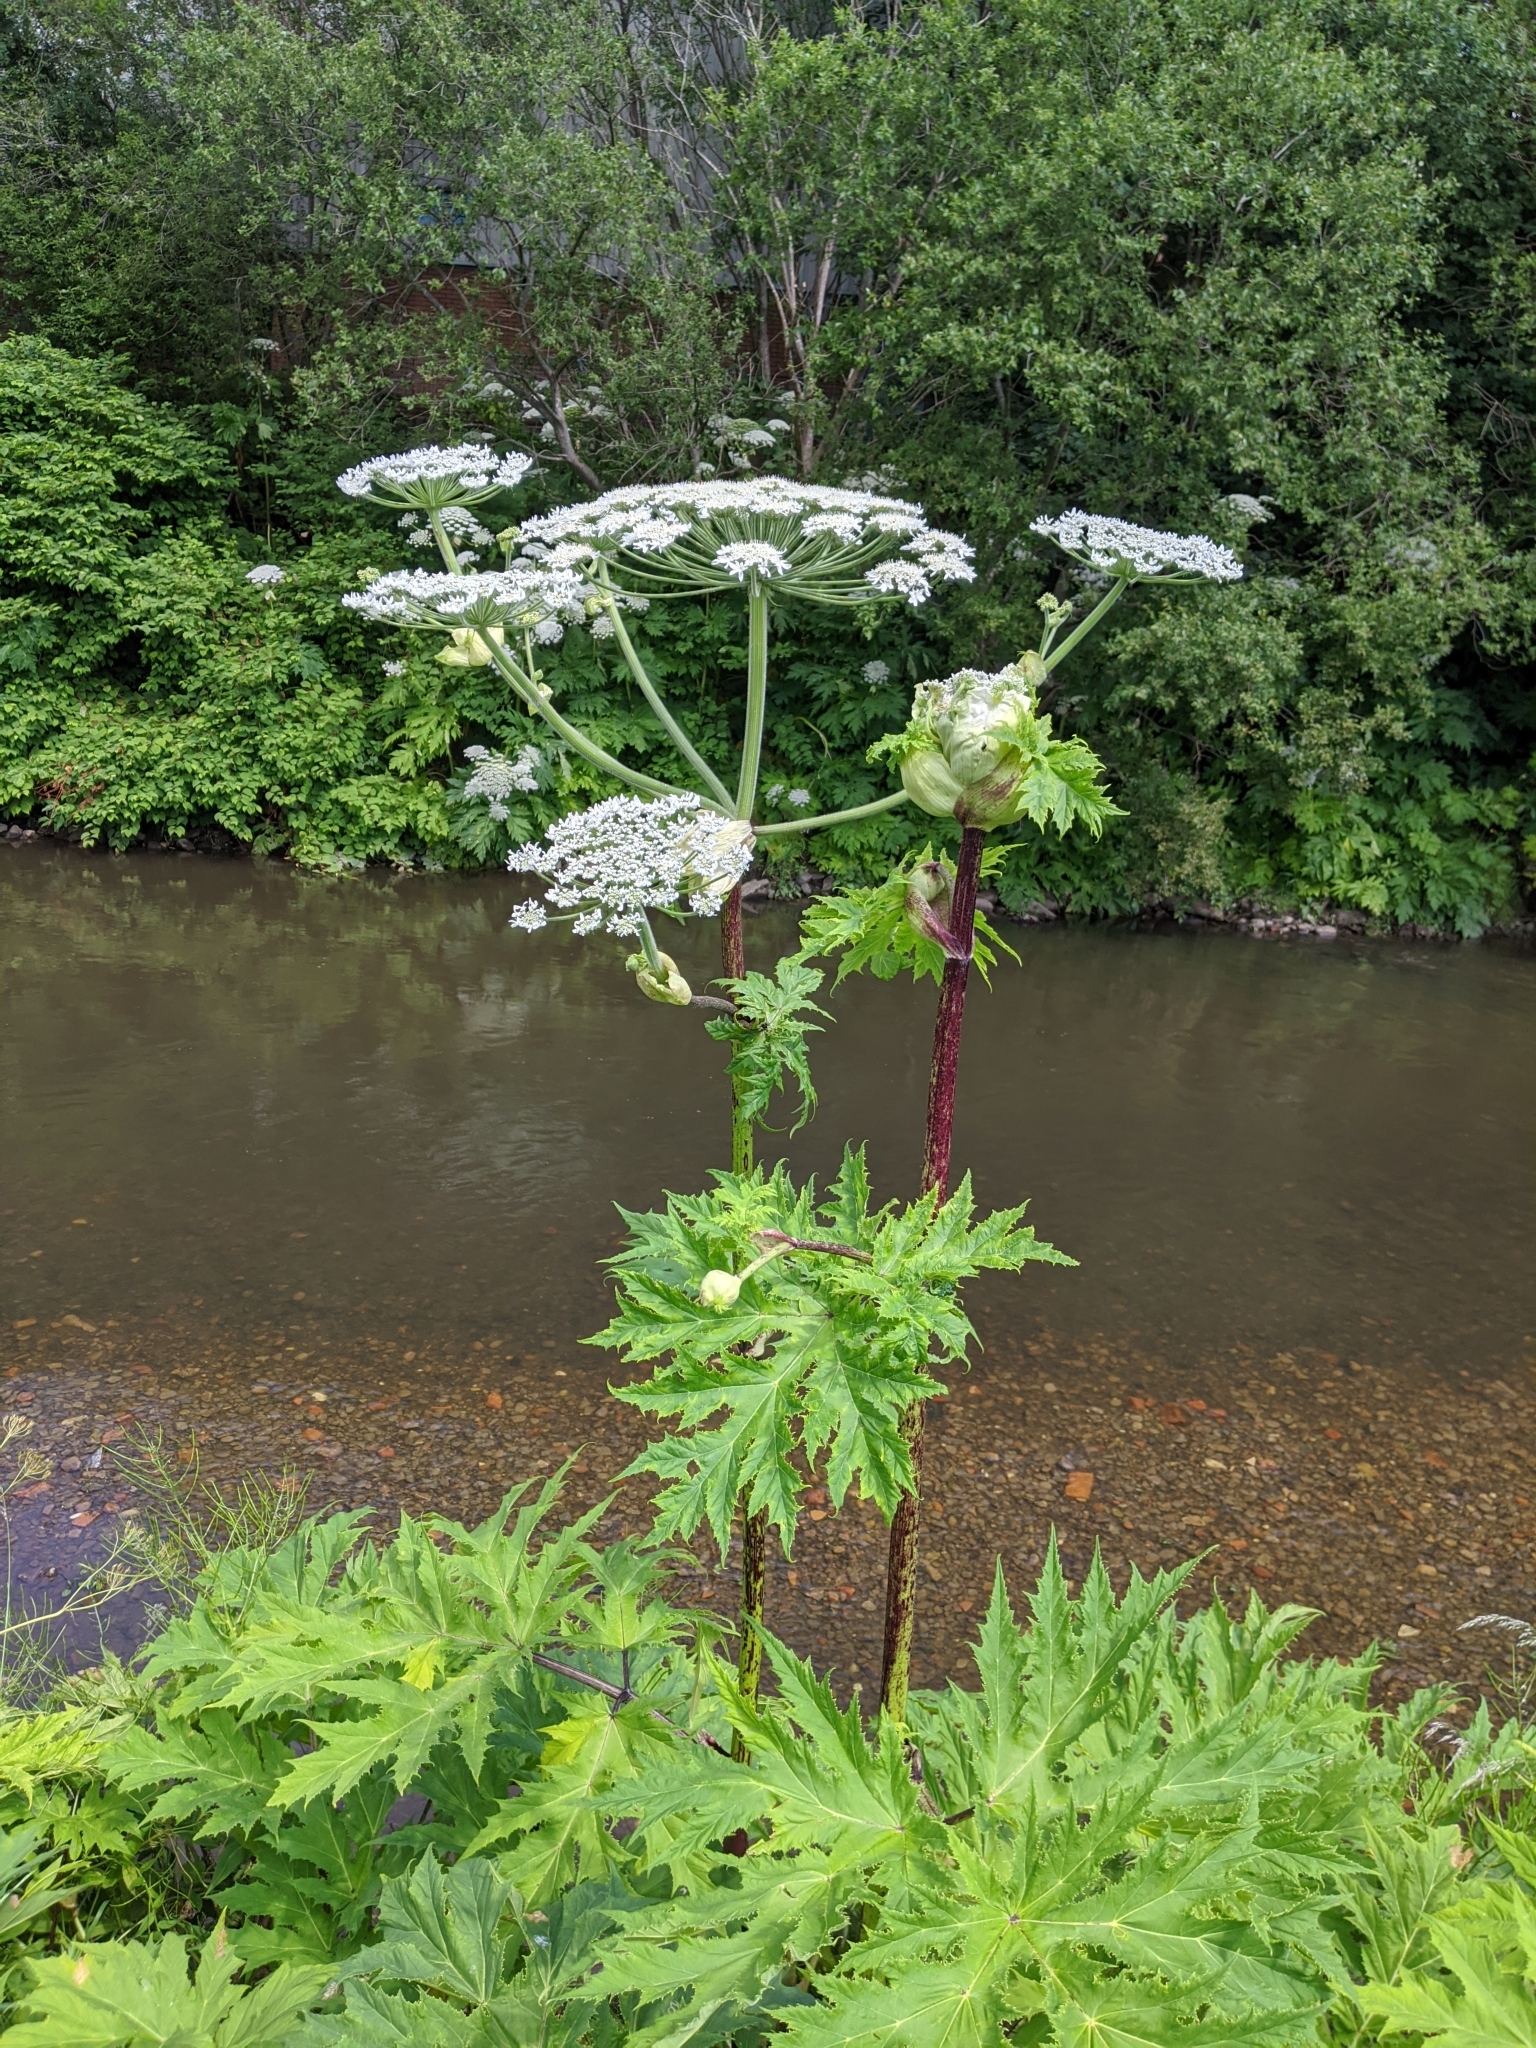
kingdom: Plantae
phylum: Tracheophyta
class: Magnoliopsida
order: Apiales
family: Apiaceae
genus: Heracleum
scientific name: Heracleum mantegazzianum
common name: Giant hogweed
